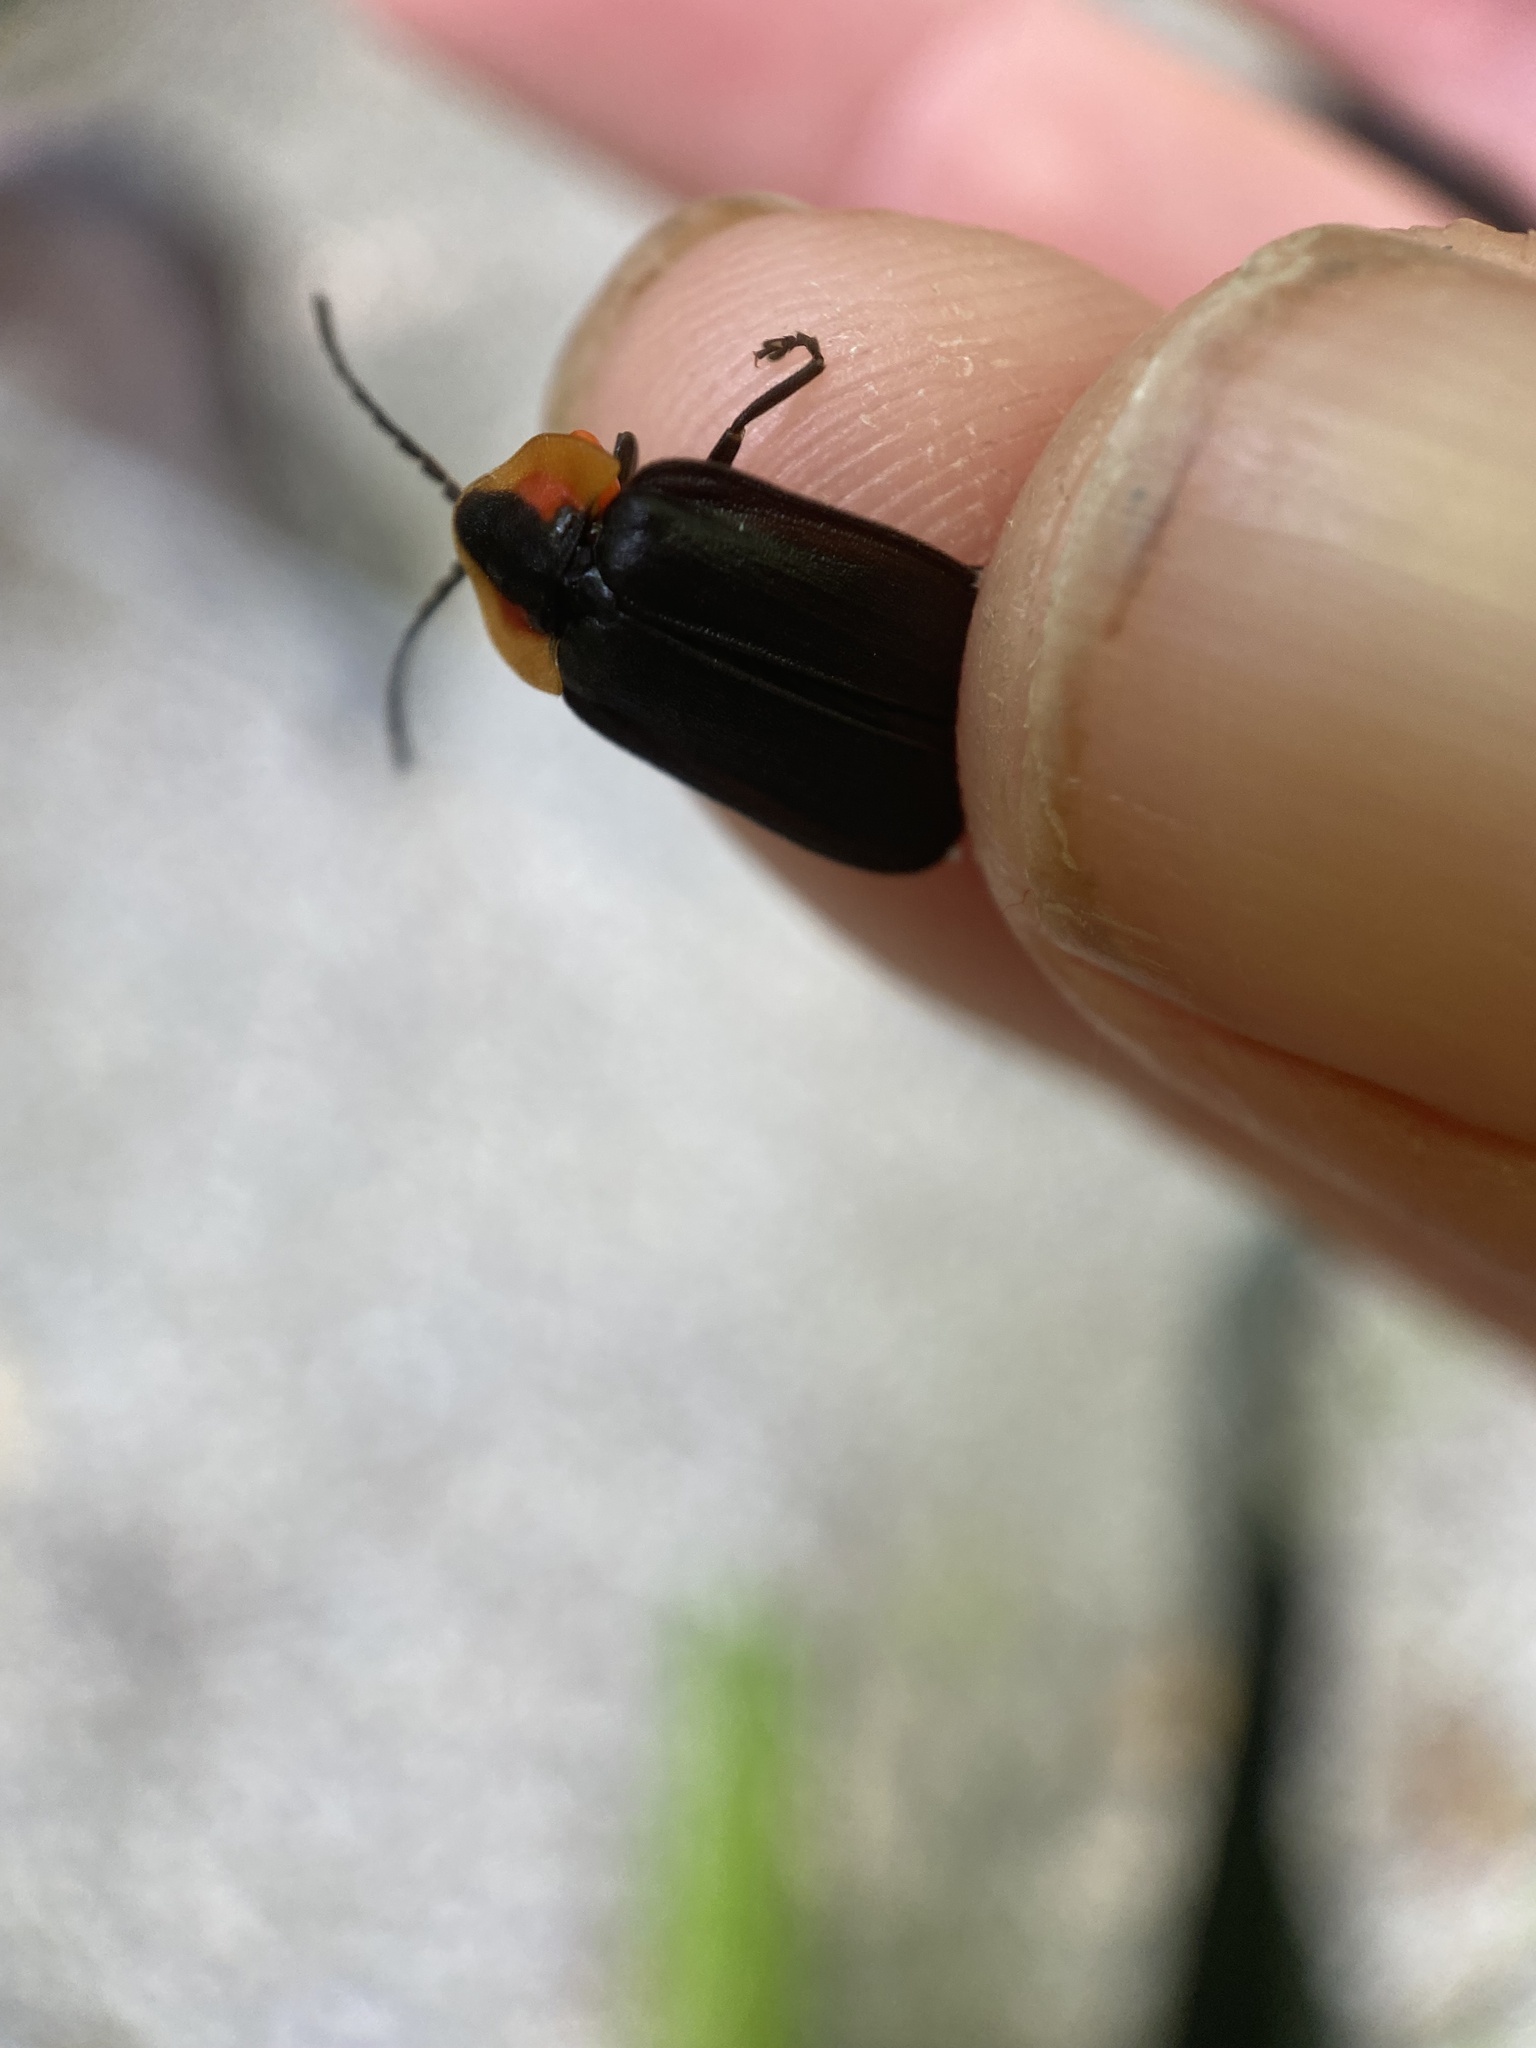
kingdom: Animalia
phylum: Arthropoda
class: Insecta
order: Coleoptera
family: Lampyridae
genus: Lucidota
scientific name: Lucidota atra
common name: Black firefly
